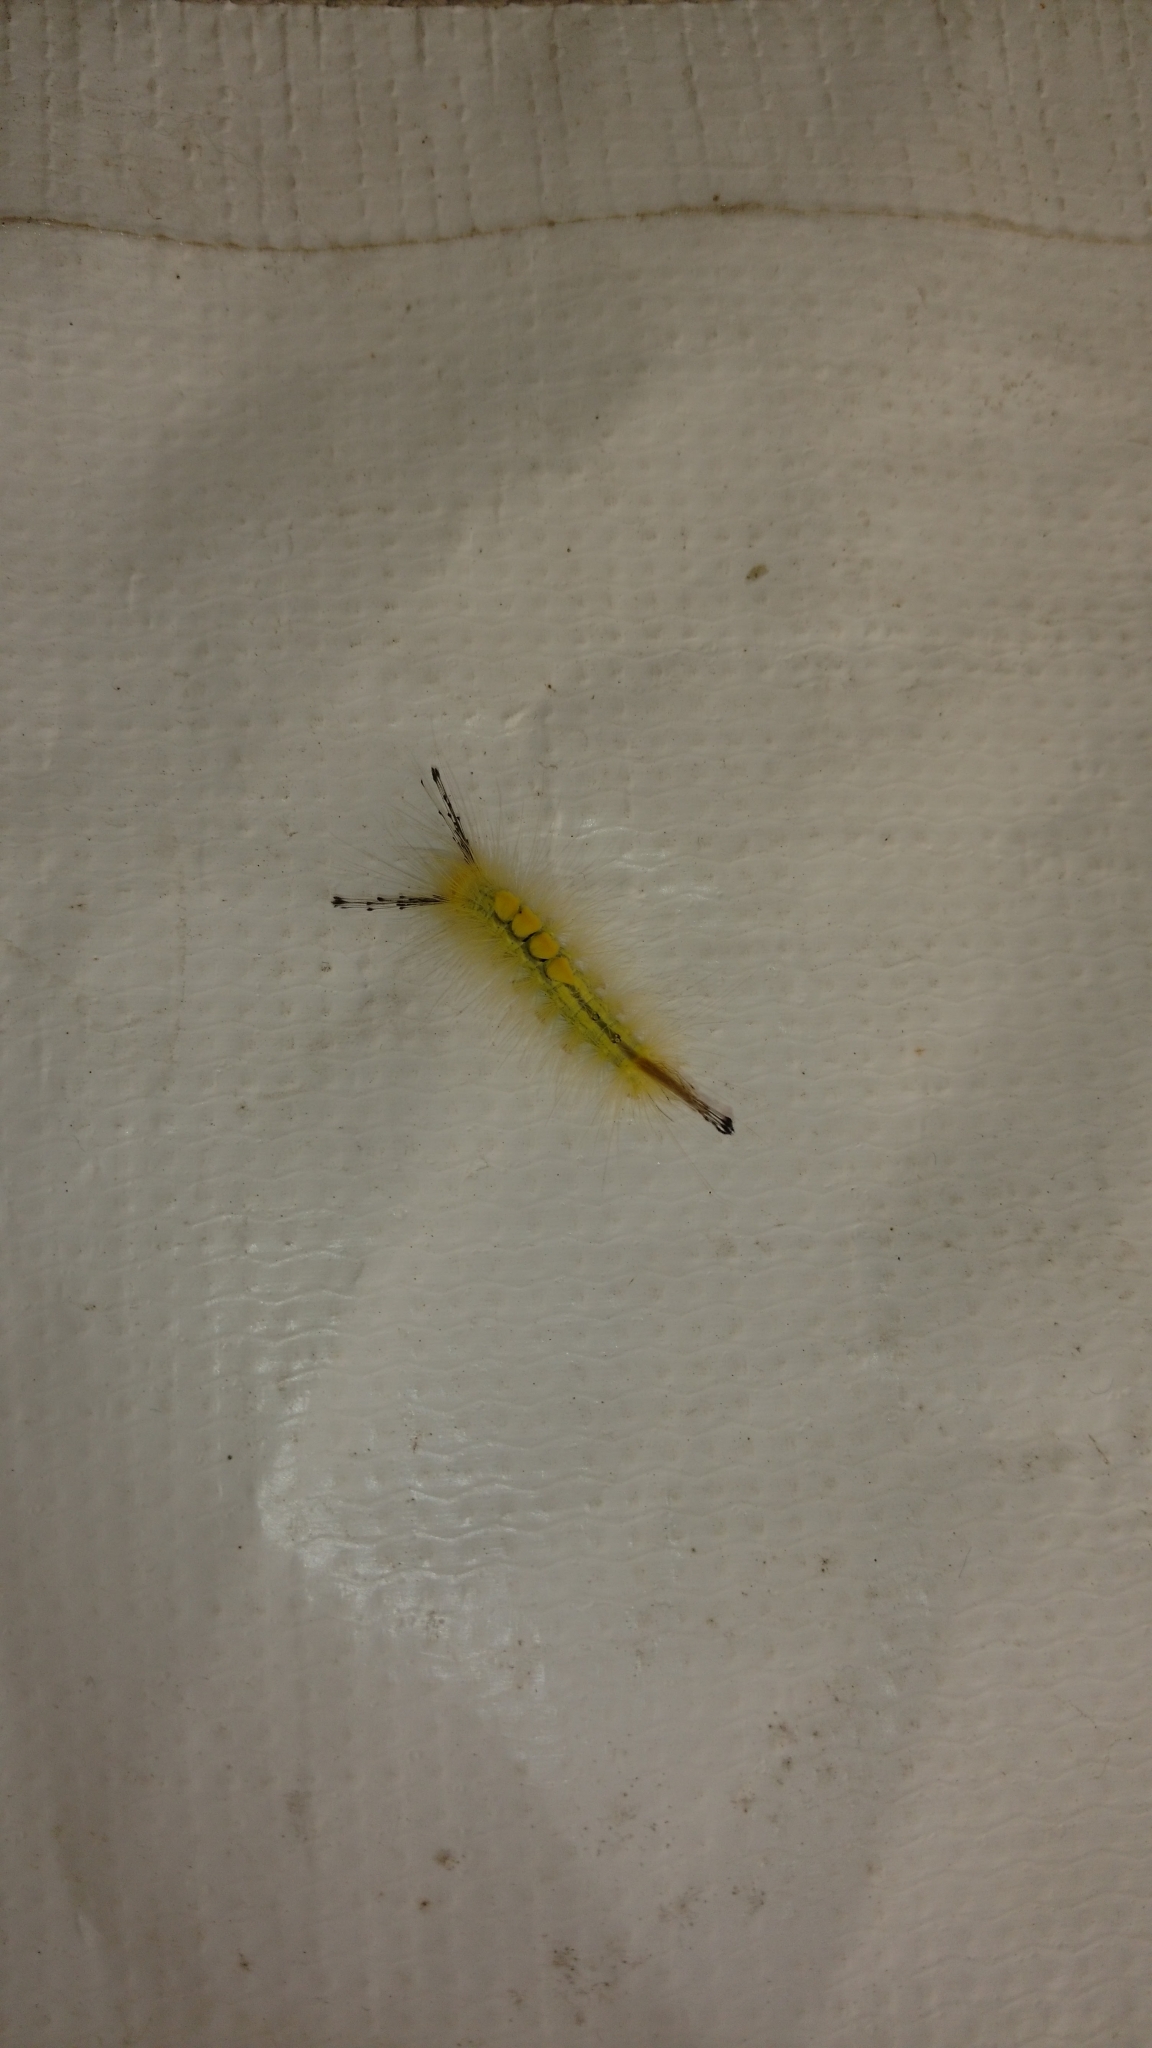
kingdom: Animalia
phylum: Arthropoda
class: Insecta
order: Lepidoptera
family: Erebidae
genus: Orgyia
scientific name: Orgyia definita
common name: Definite tussock moth
